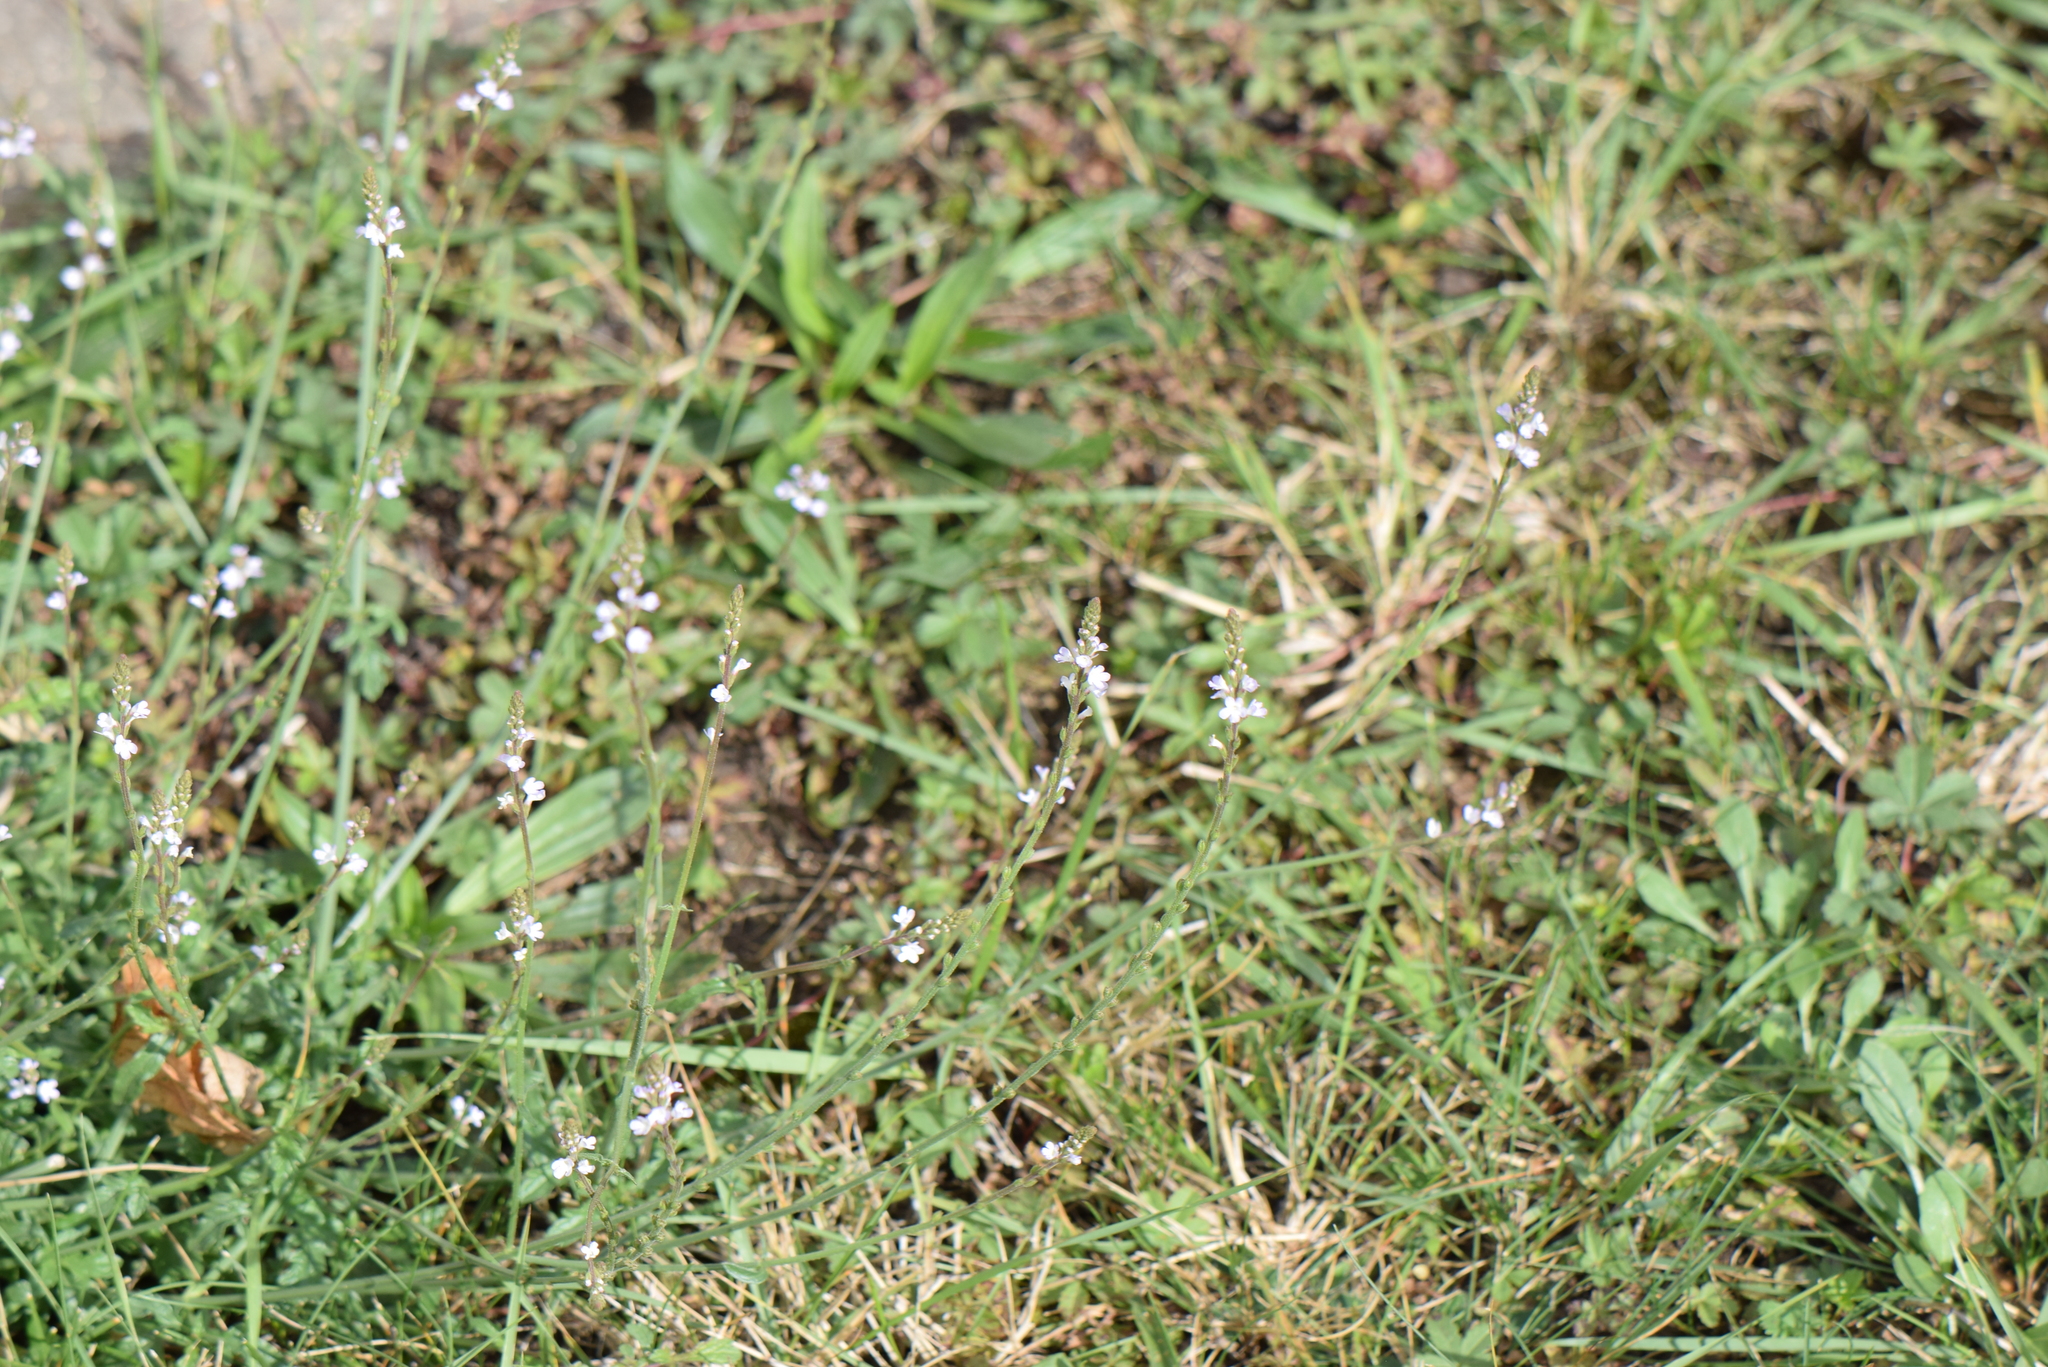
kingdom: Plantae
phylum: Tracheophyta
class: Magnoliopsida
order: Lamiales
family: Verbenaceae
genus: Verbena
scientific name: Verbena officinalis
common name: Vervain
